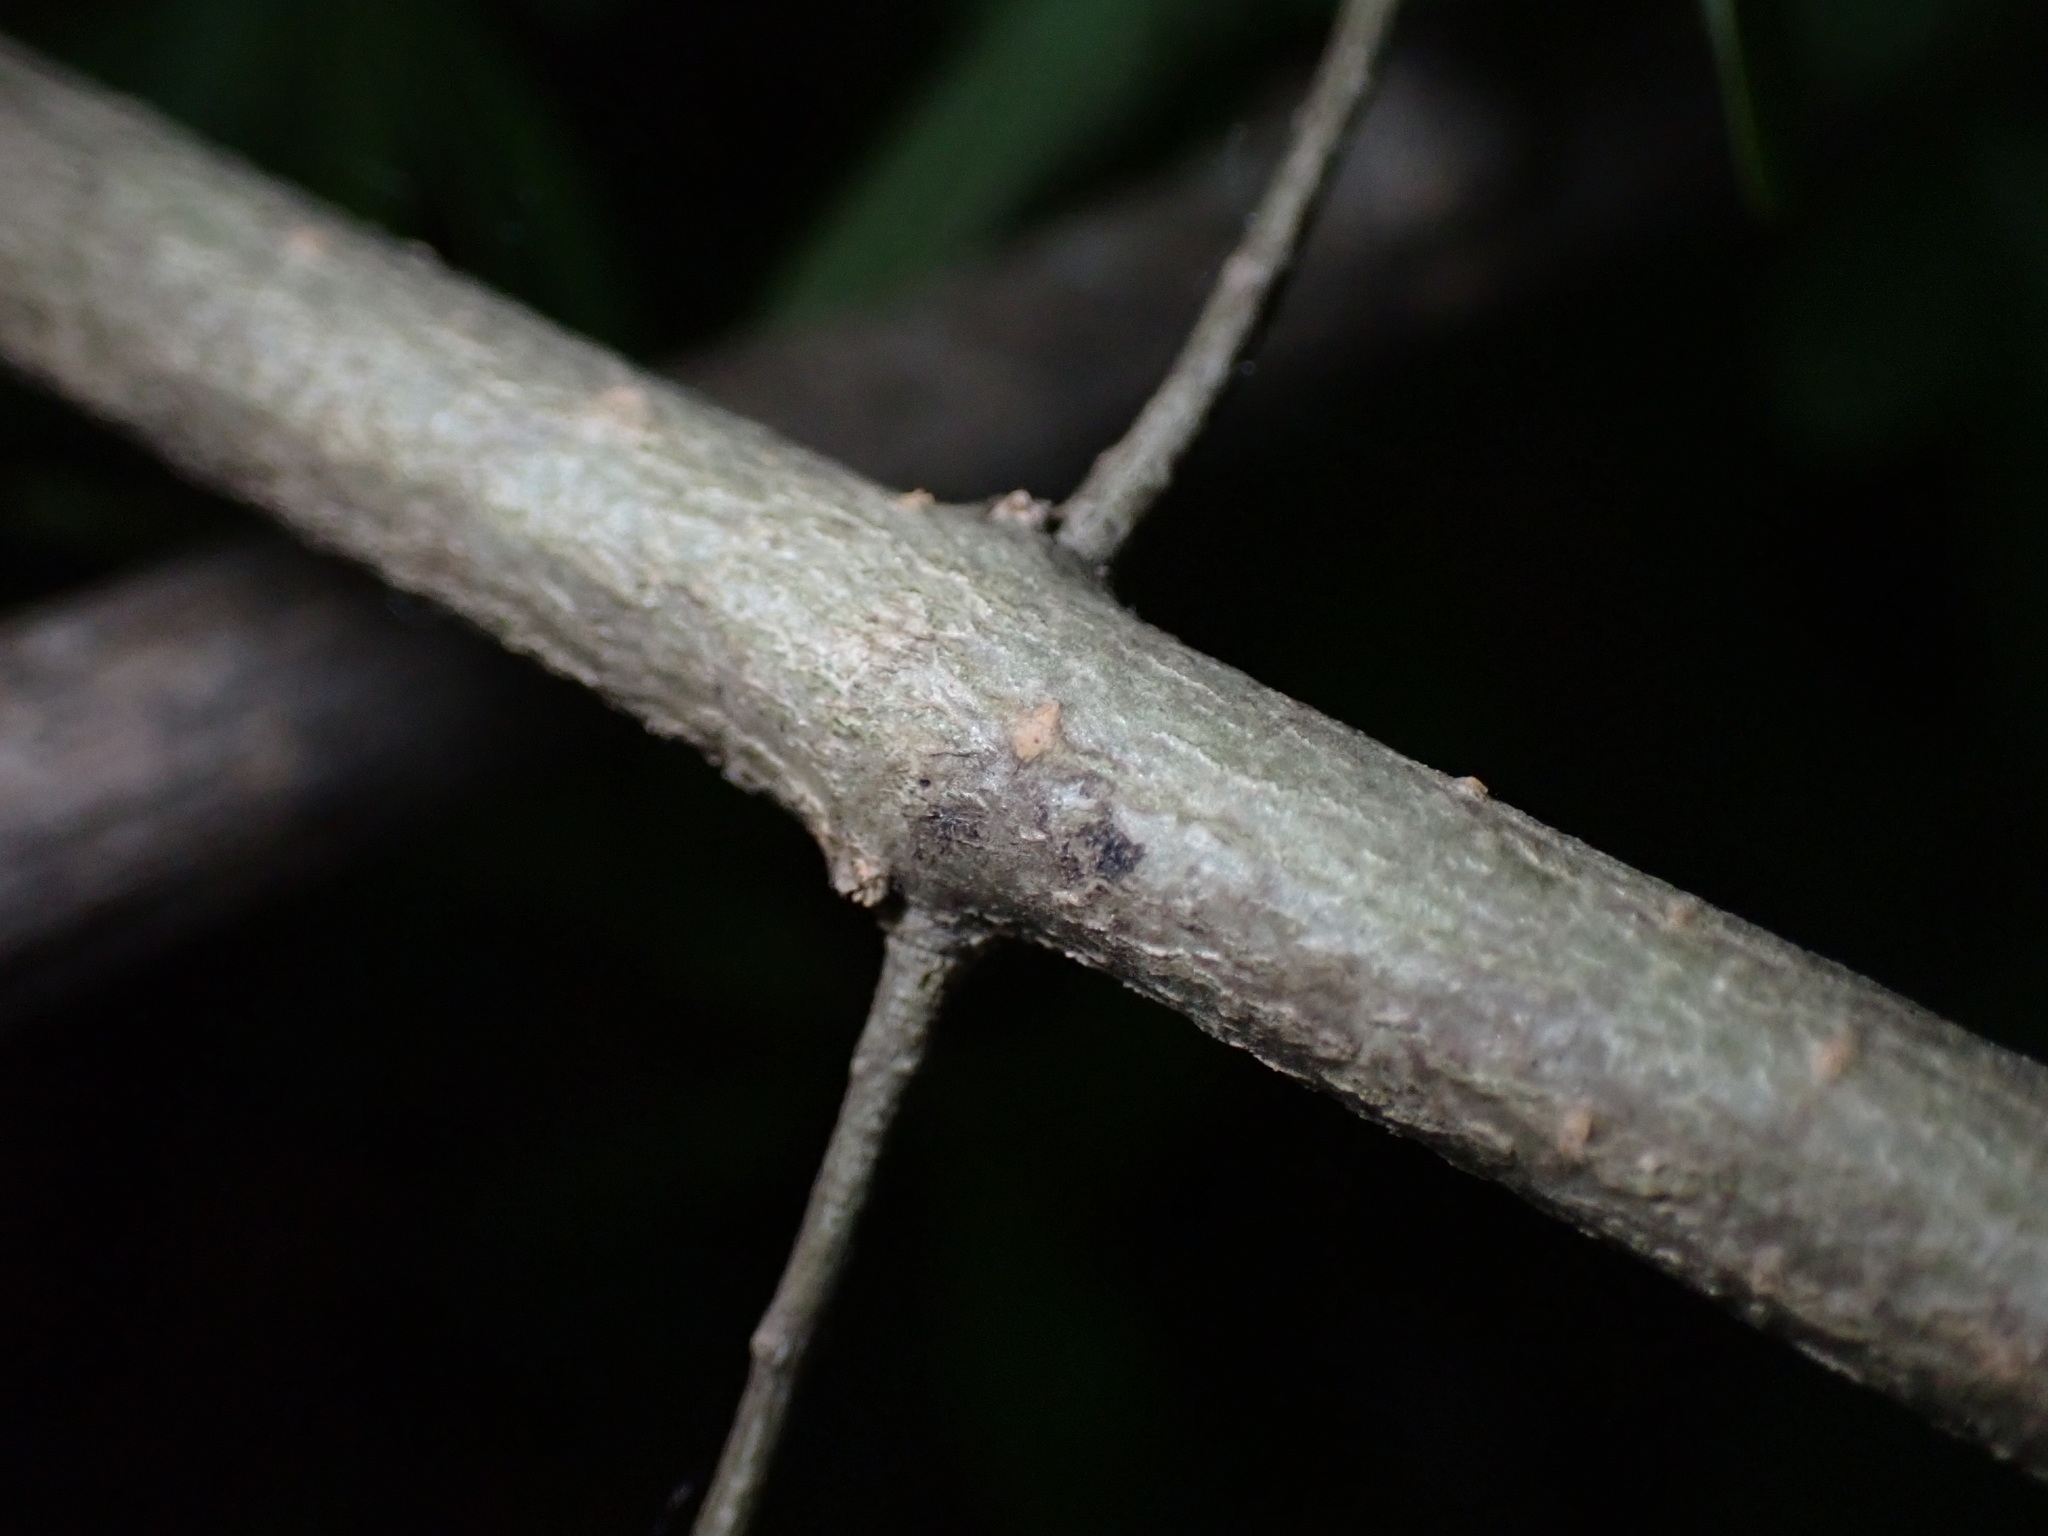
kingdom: Plantae
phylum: Tracheophyta
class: Magnoliopsida
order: Lamiales
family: Oleaceae
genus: Ligustrum
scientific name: Ligustrum obtusifolium
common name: Border privet
